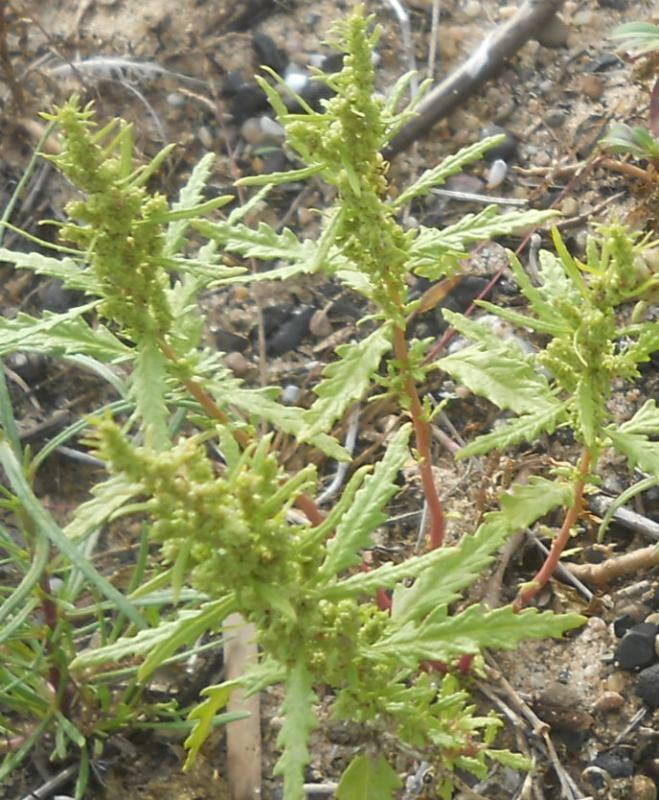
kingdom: Plantae
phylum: Tracheophyta
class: Magnoliopsida
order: Caryophyllales
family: Amaranthaceae
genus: Dysphania
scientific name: Dysphania ambrosioides
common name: Wormseed
